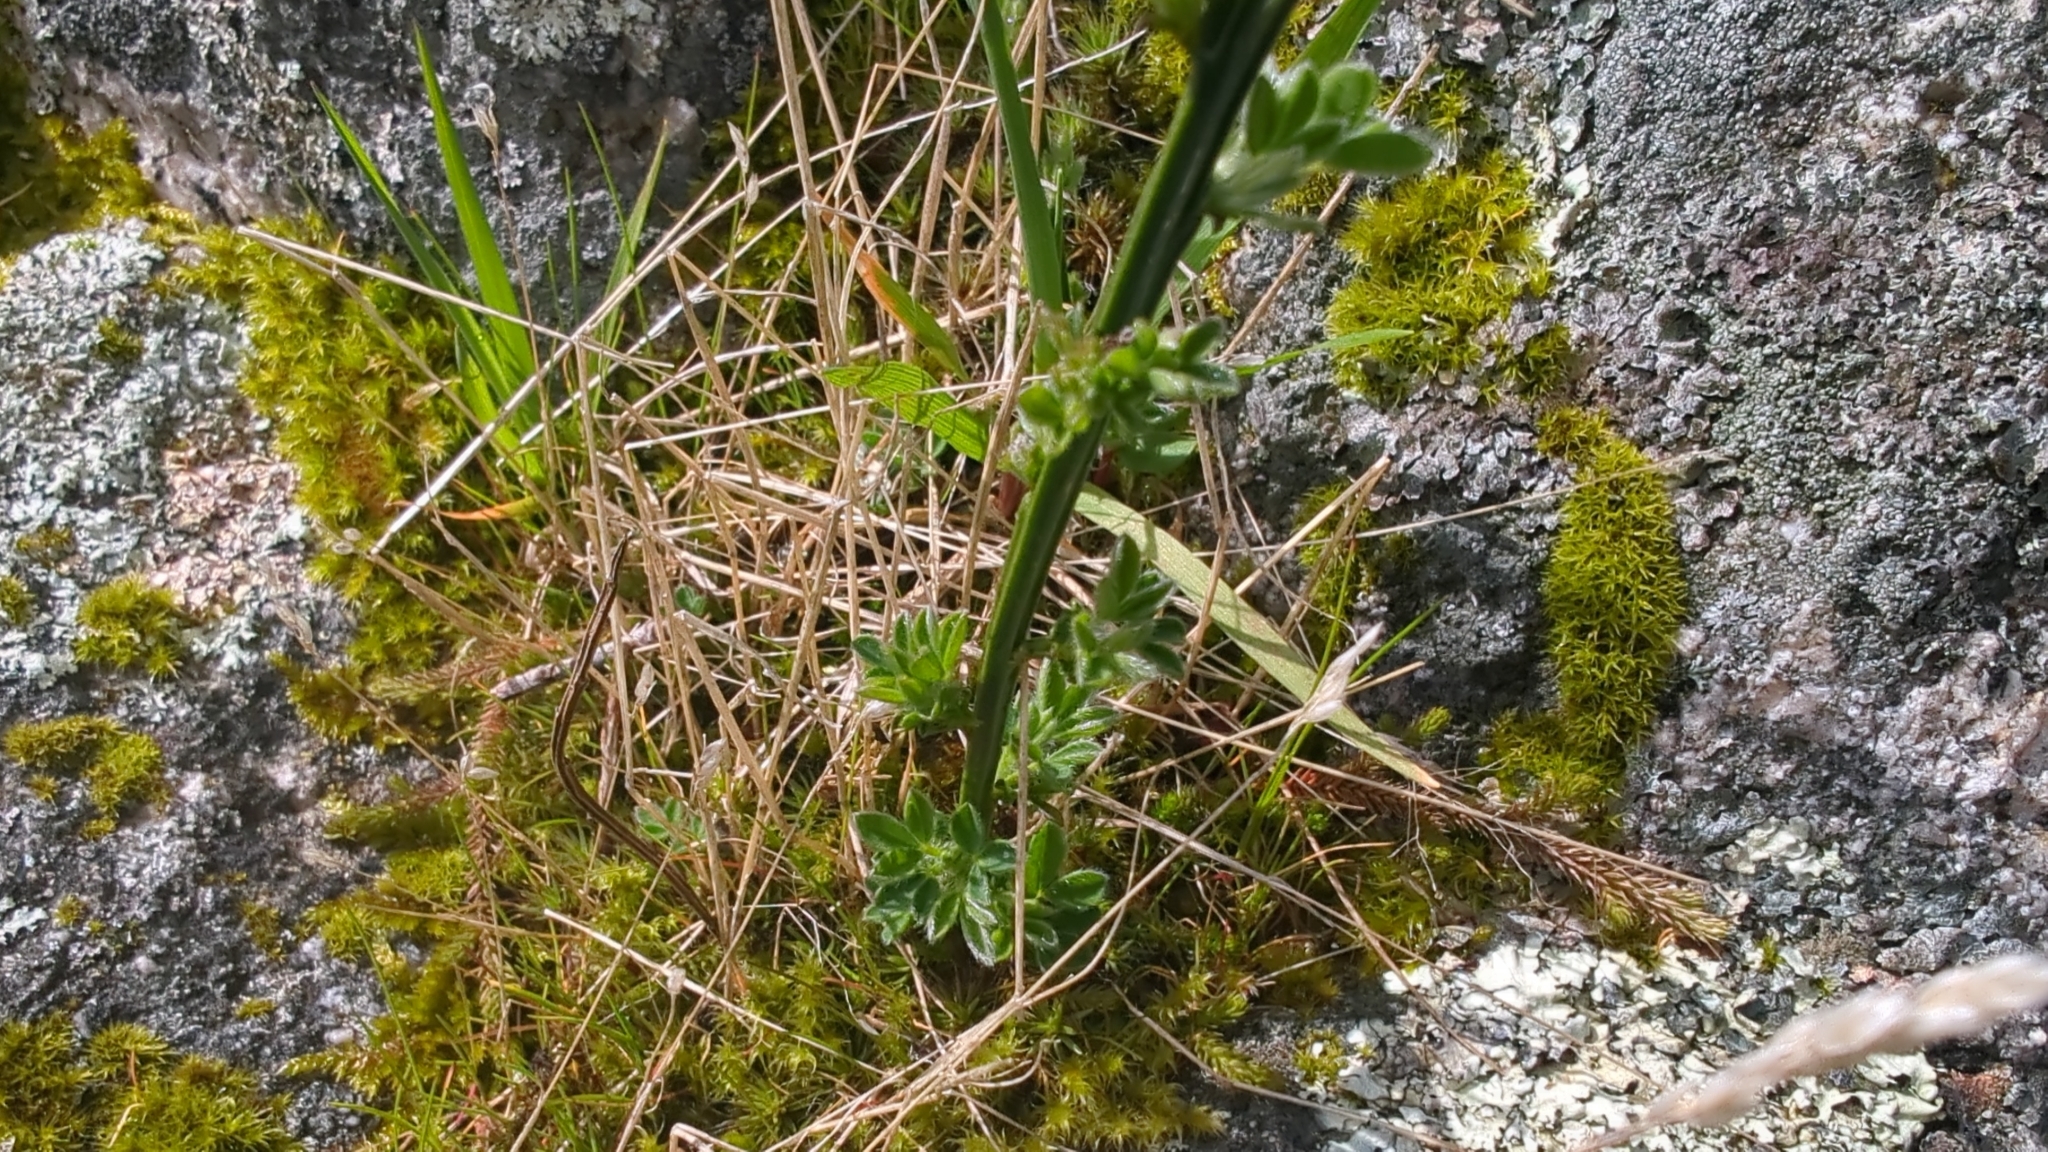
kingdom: Plantae
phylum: Tracheophyta
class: Magnoliopsida
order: Fabales
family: Fabaceae
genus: Cytisus
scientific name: Cytisus scoparius
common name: Scotch broom
